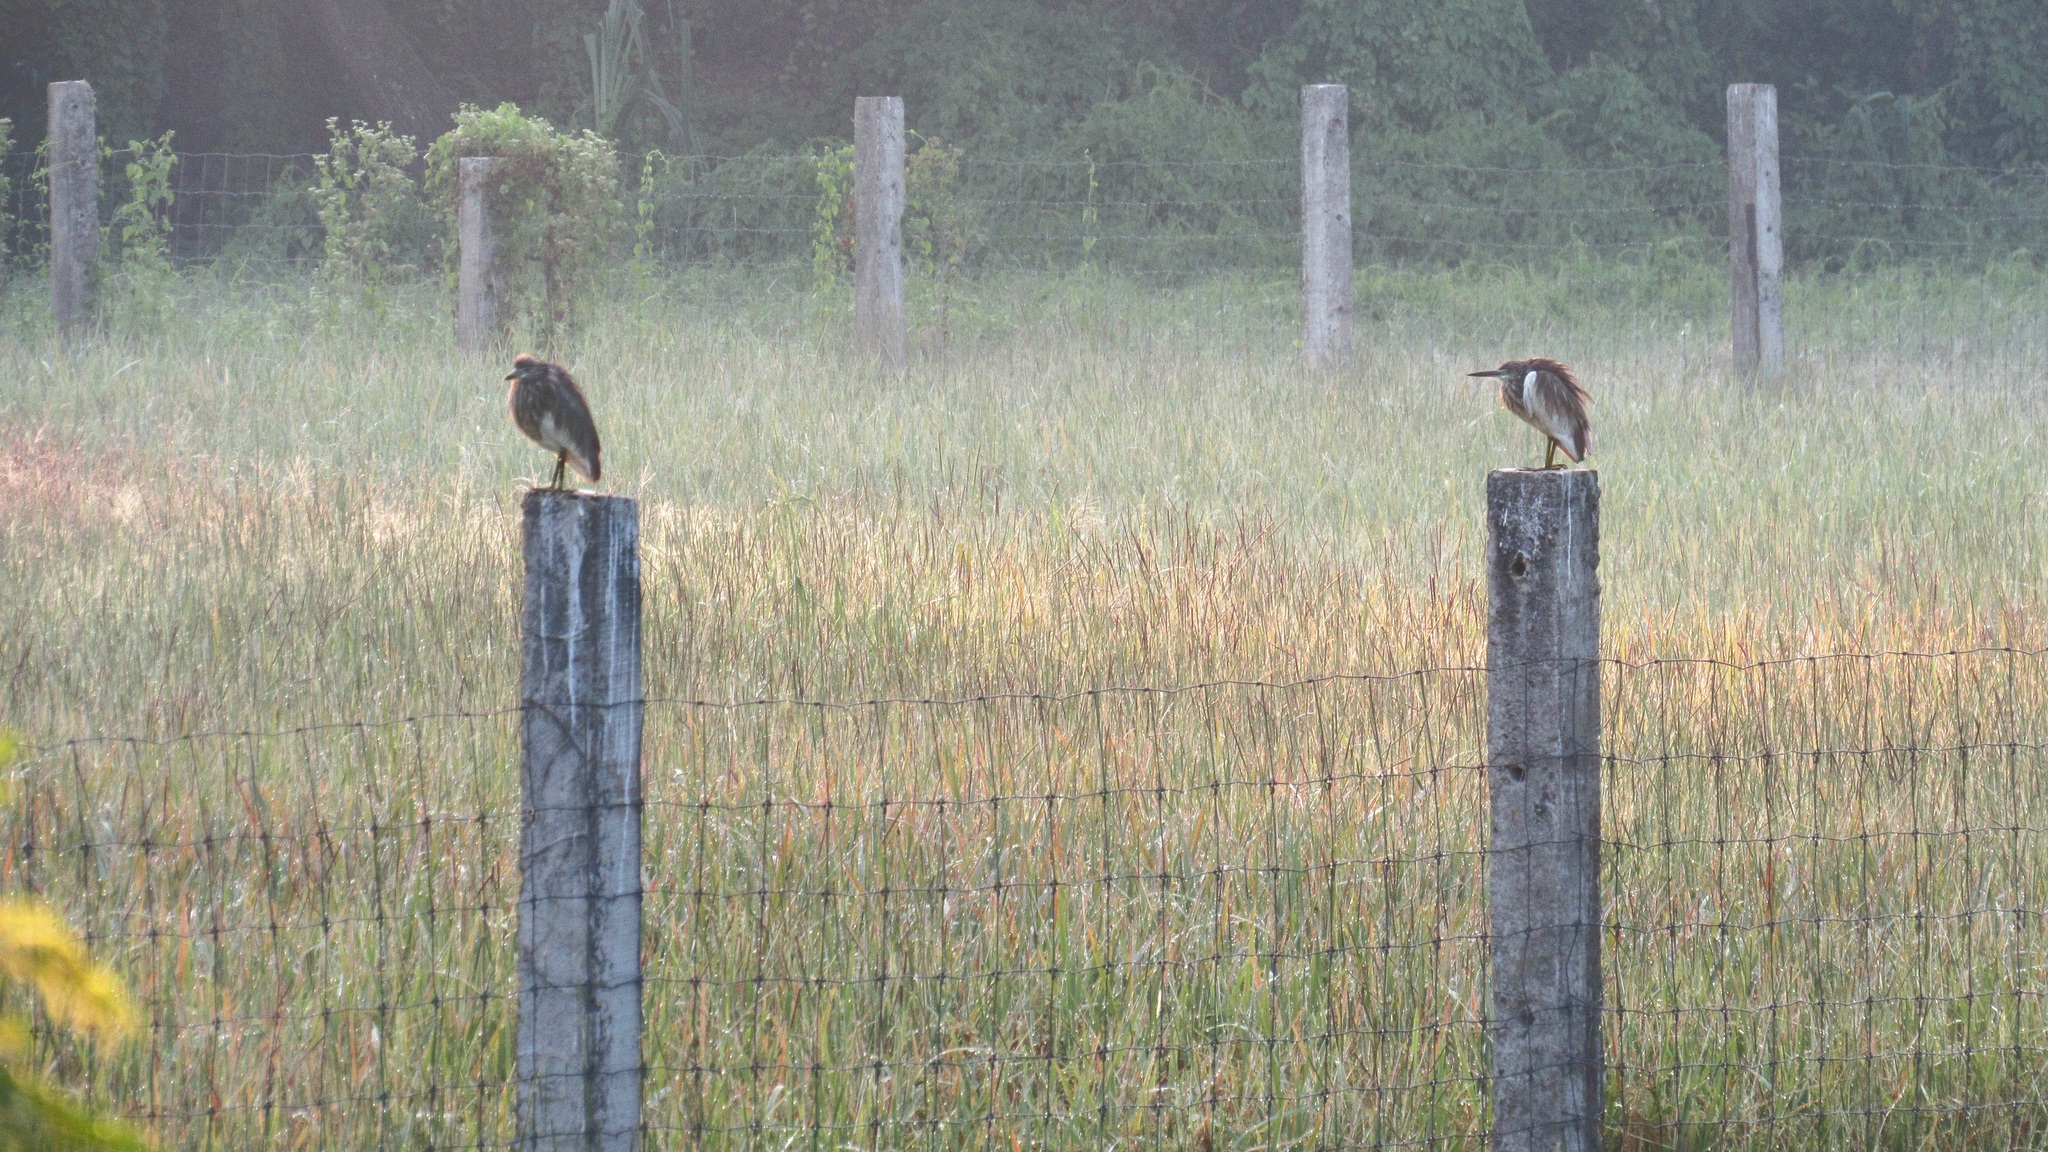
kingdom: Animalia
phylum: Chordata
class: Aves
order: Pelecaniformes
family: Ardeidae
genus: Ardeola
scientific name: Ardeola grayii
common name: Indian pond heron
